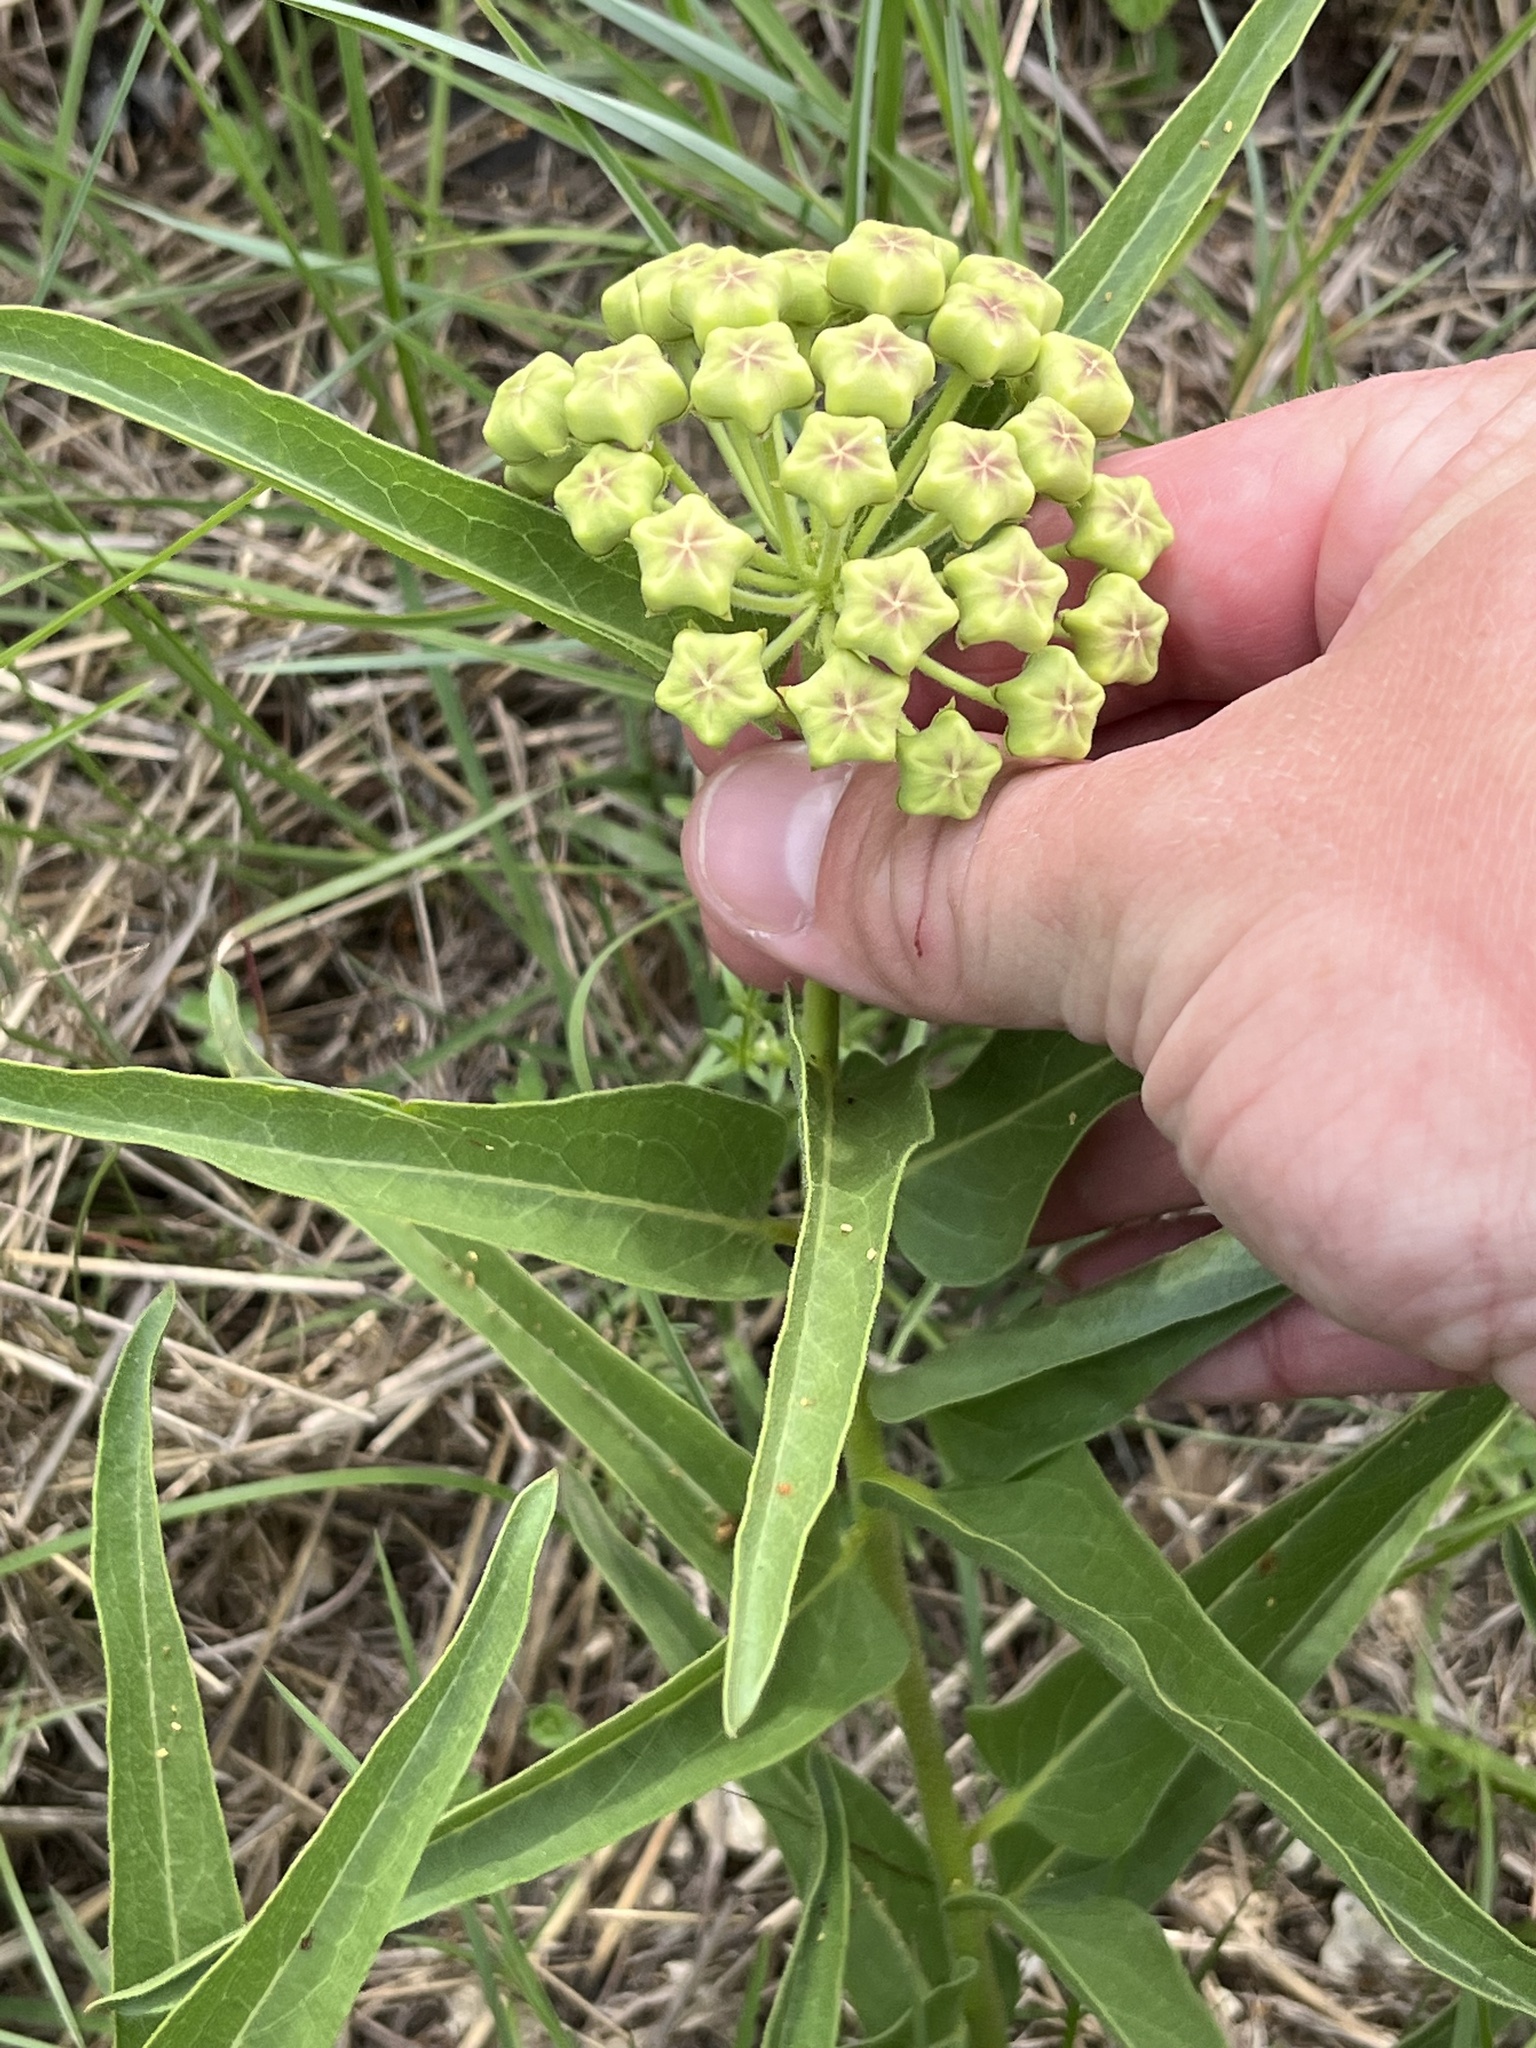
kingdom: Plantae
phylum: Tracheophyta
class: Magnoliopsida
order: Gentianales
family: Apocynaceae
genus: Asclepias
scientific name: Asclepias asperula
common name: Antelope horns
